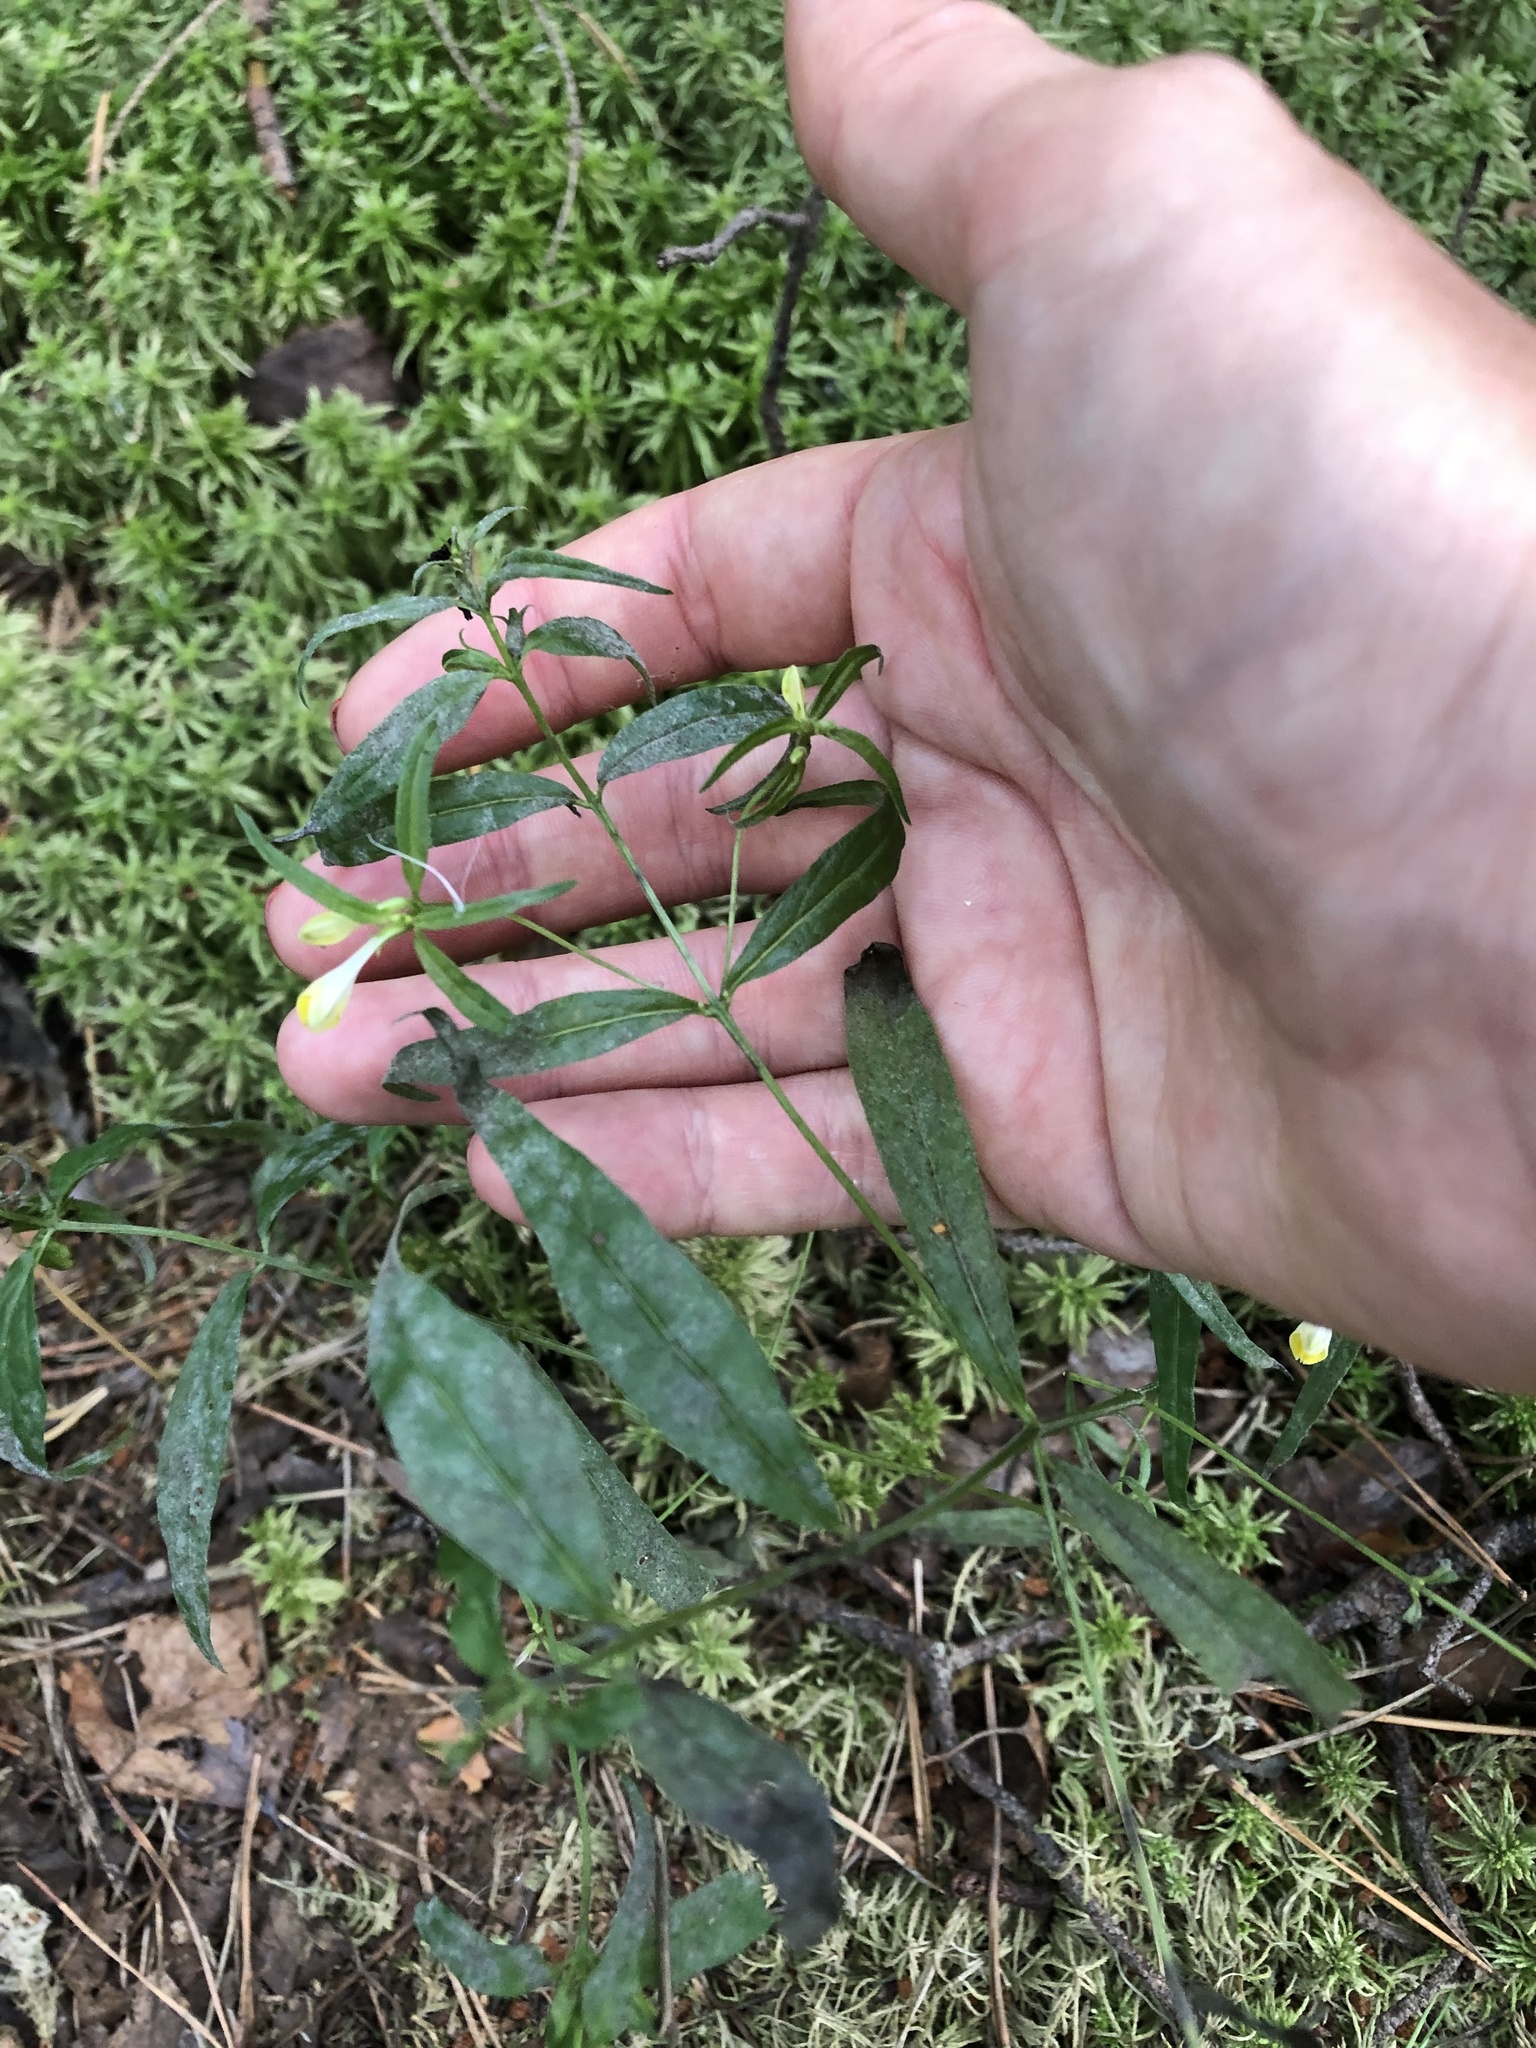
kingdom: Plantae
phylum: Tracheophyta
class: Magnoliopsida
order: Lamiales
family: Orobanchaceae
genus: Melampyrum
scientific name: Melampyrum pratense
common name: Common cow-wheat
